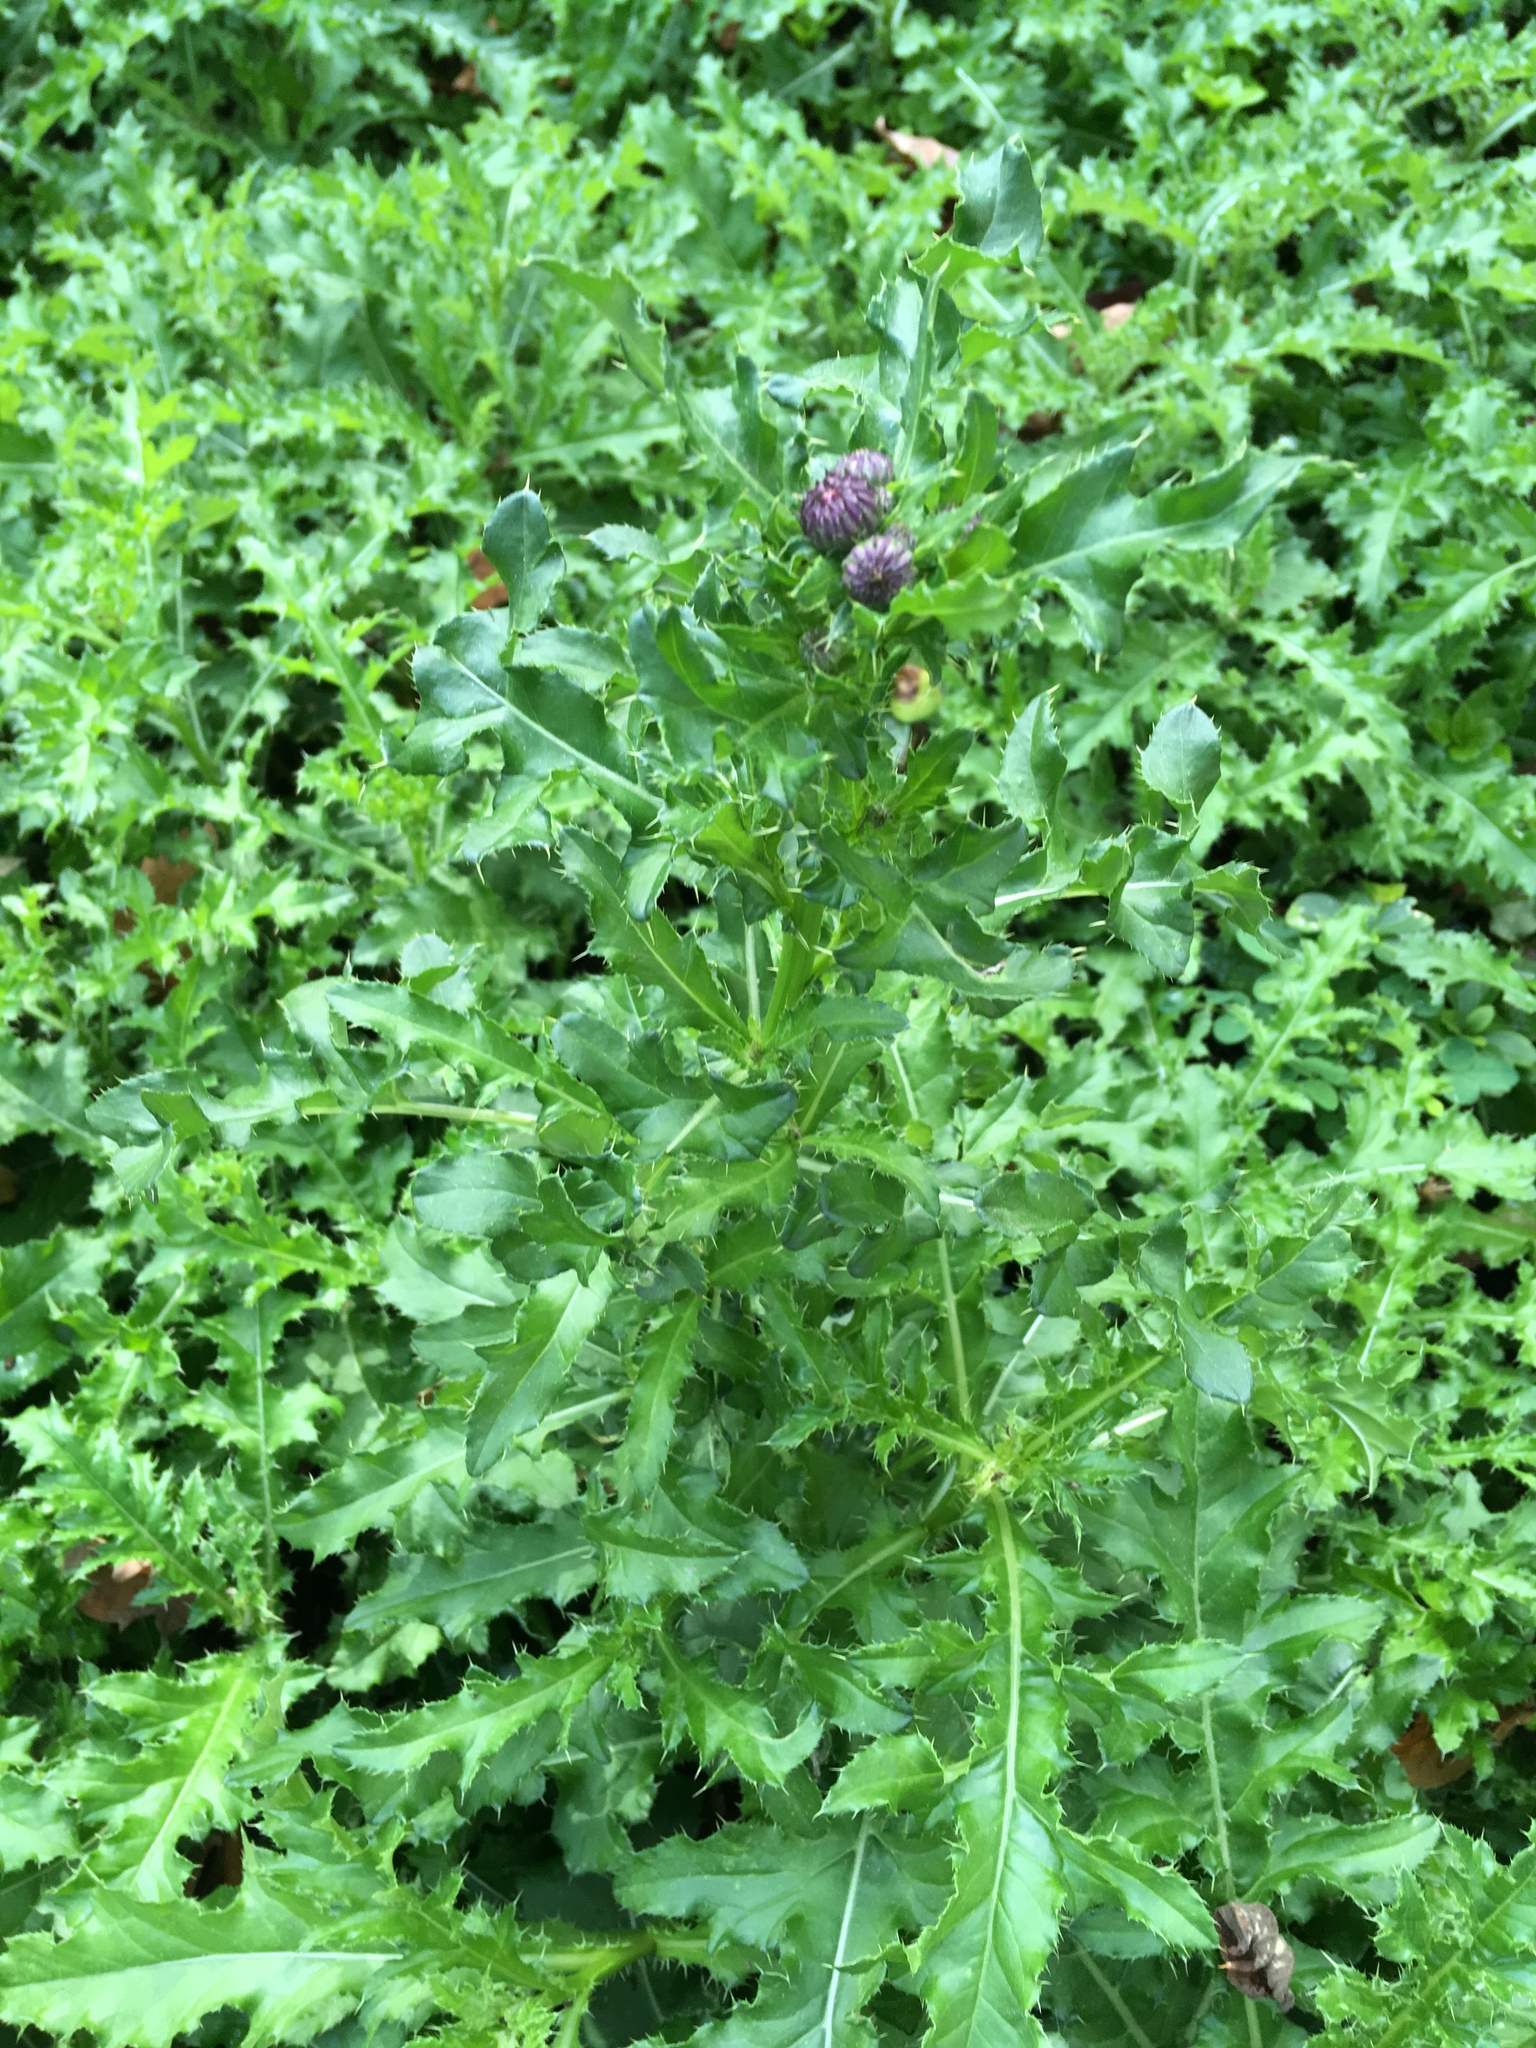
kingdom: Plantae
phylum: Tracheophyta
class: Magnoliopsida
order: Asterales
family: Asteraceae
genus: Cirsium
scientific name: Cirsium arvense
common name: Creeping thistle
